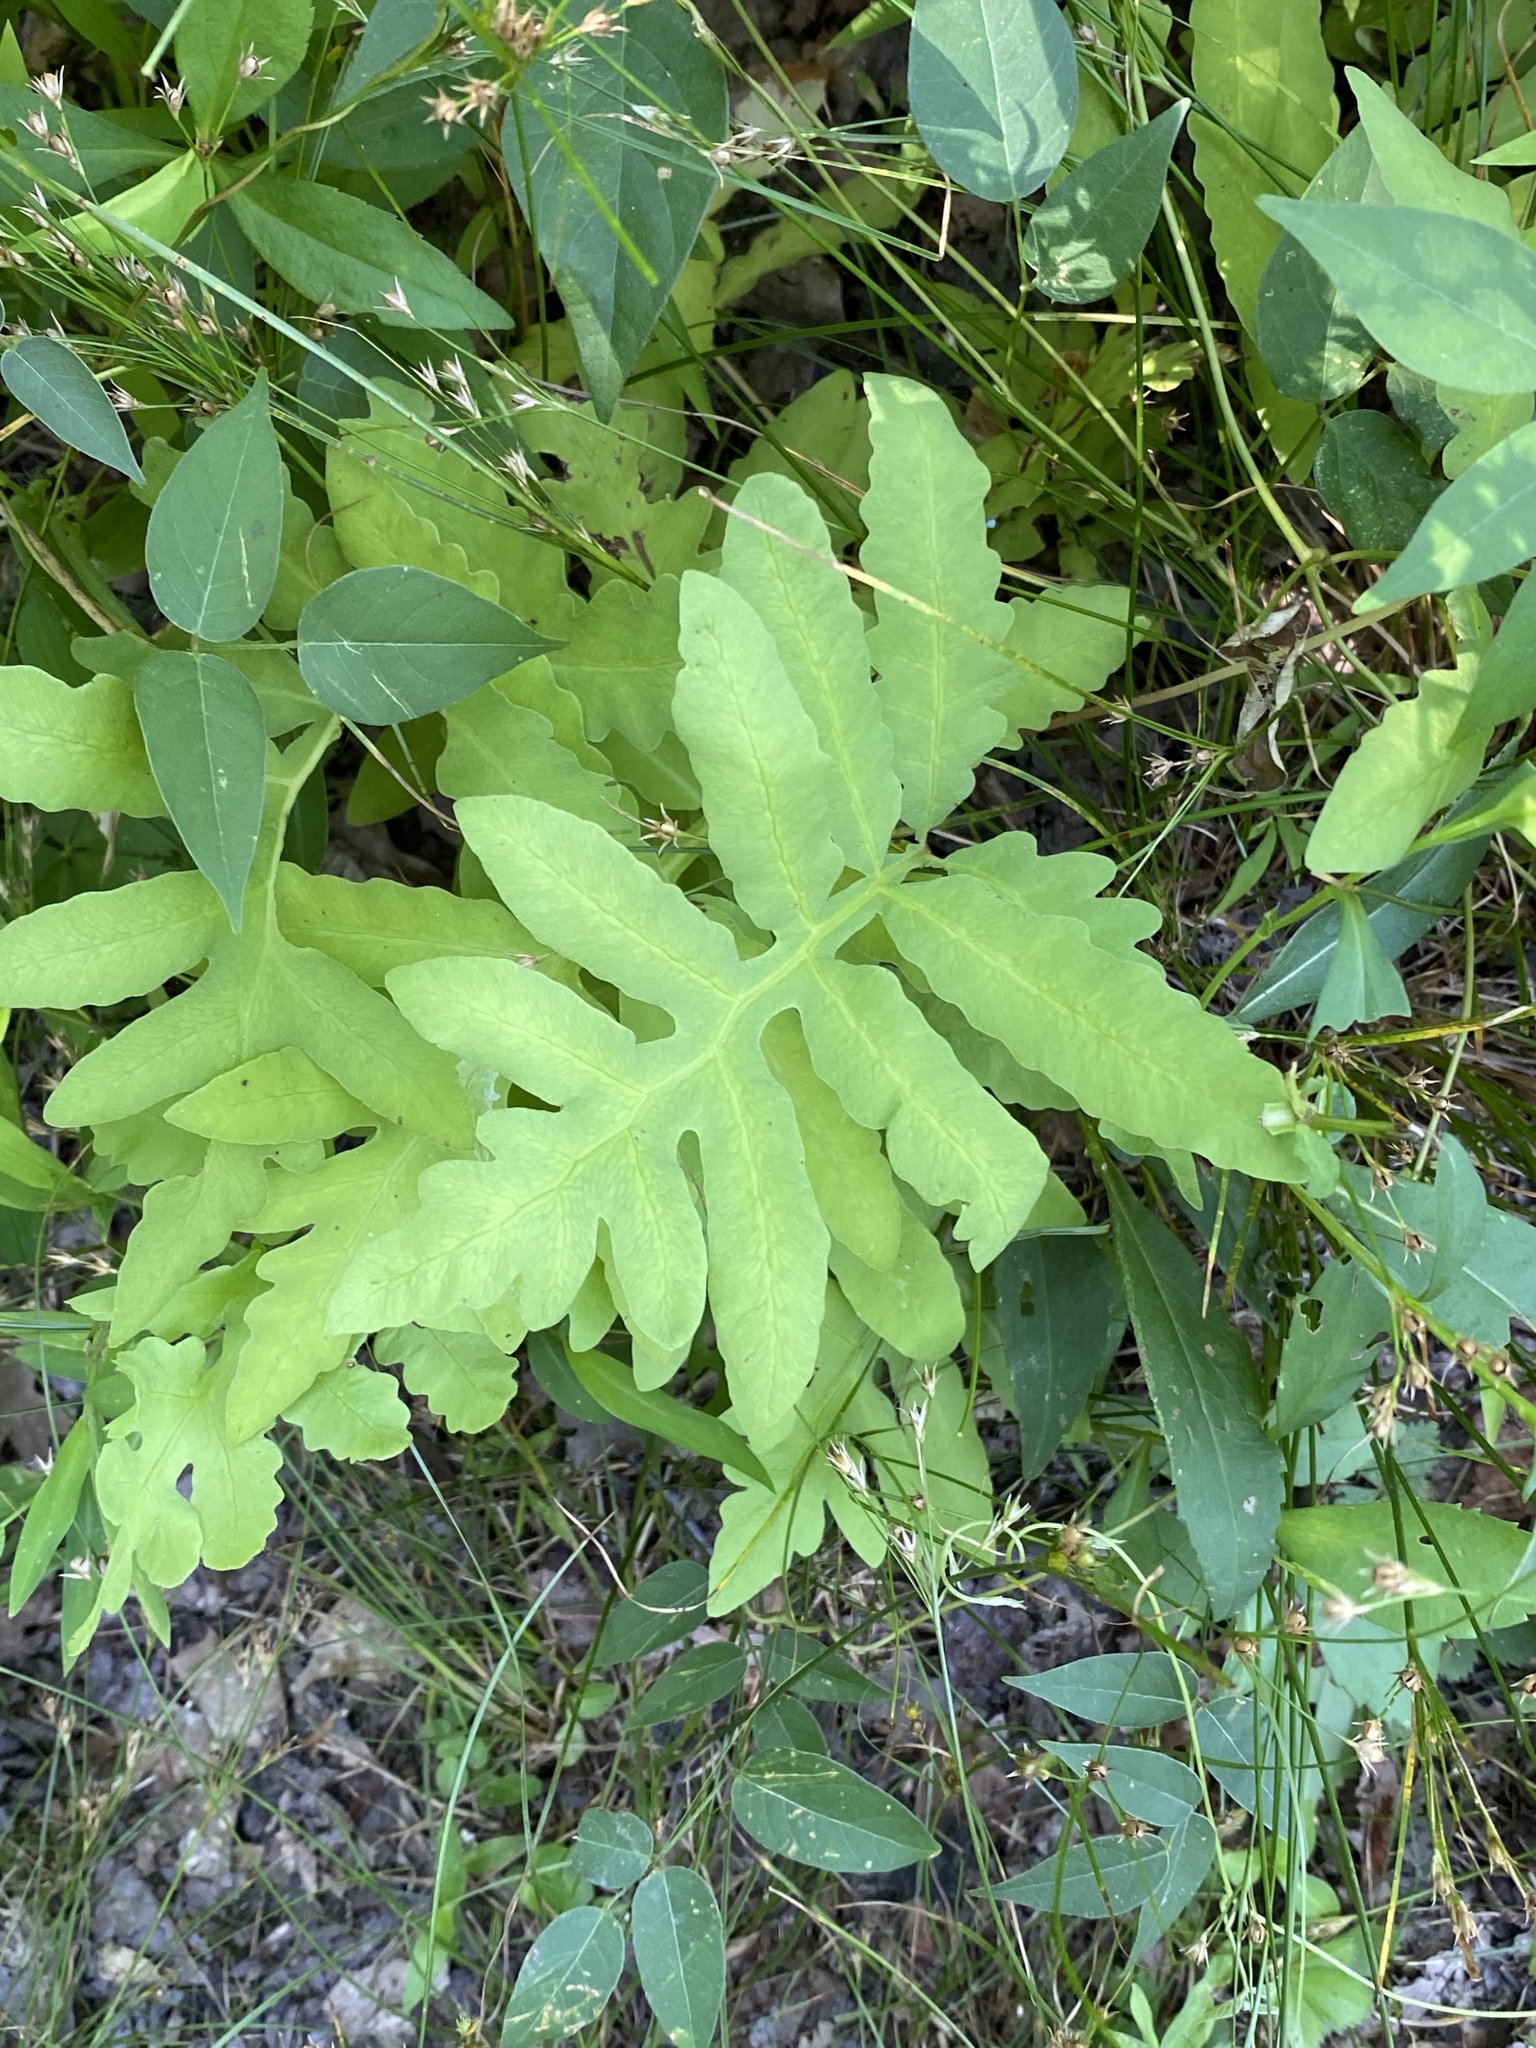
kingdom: Plantae
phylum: Tracheophyta
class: Polypodiopsida
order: Polypodiales
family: Onocleaceae
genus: Onoclea
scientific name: Onoclea sensibilis
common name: Sensitive fern
